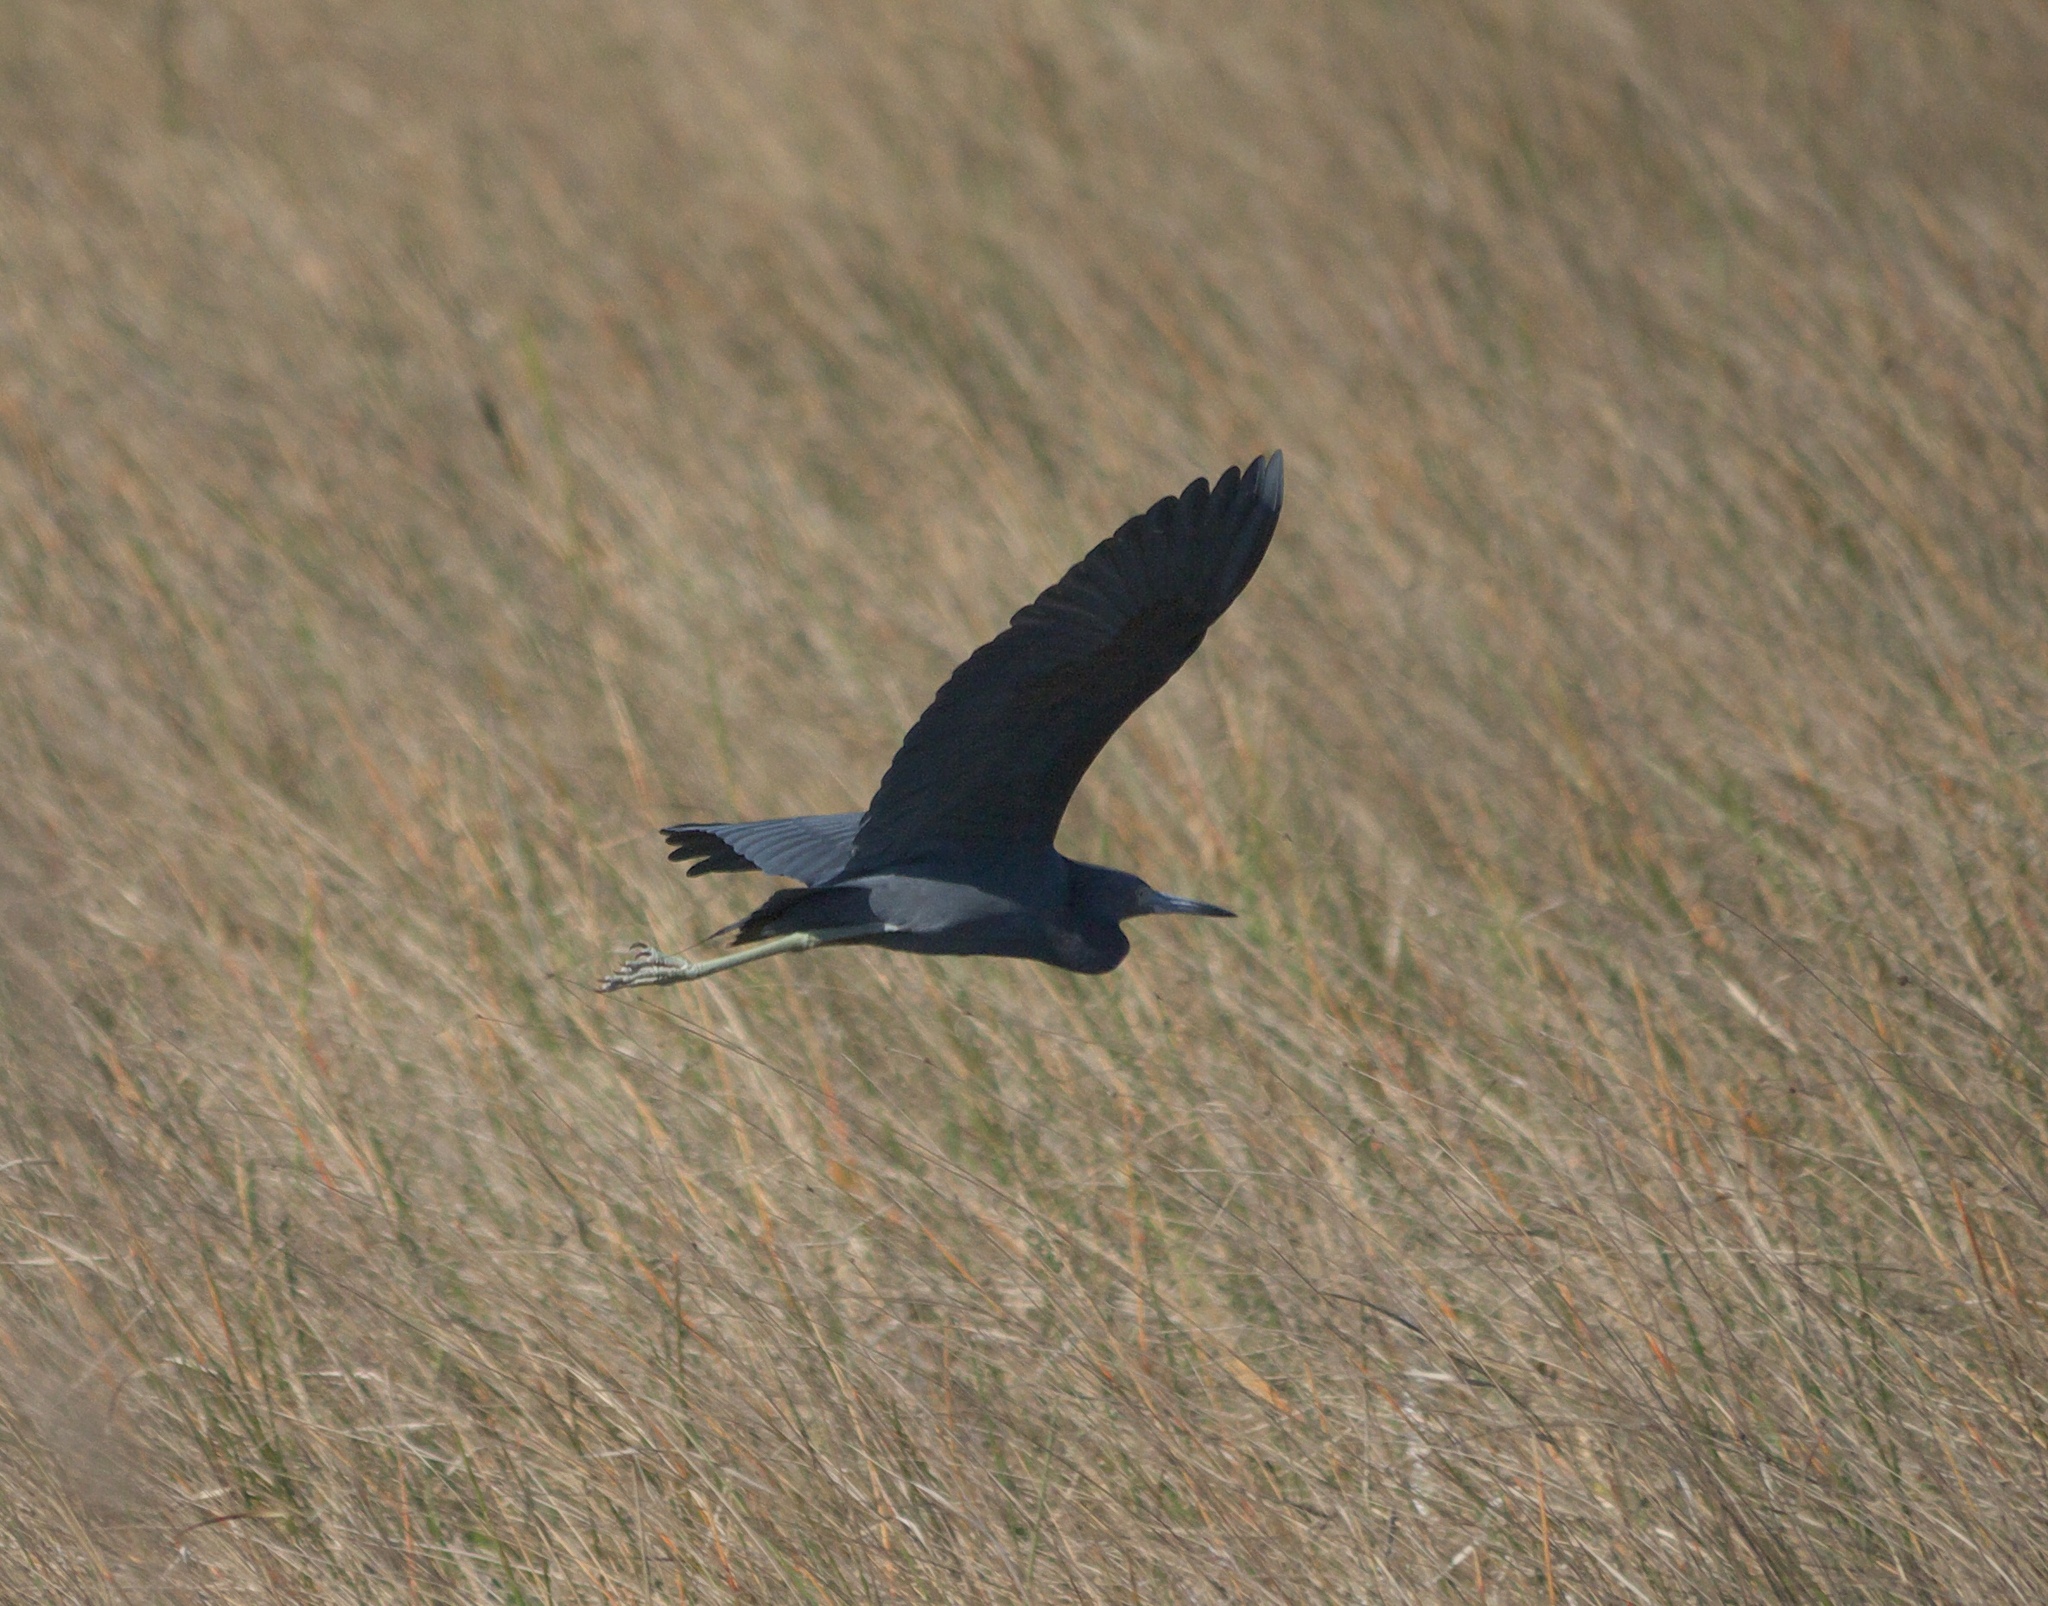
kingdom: Animalia
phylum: Chordata
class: Aves
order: Pelecaniformes
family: Ardeidae
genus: Egretta
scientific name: Egretta caerulea
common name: Little blue heron
